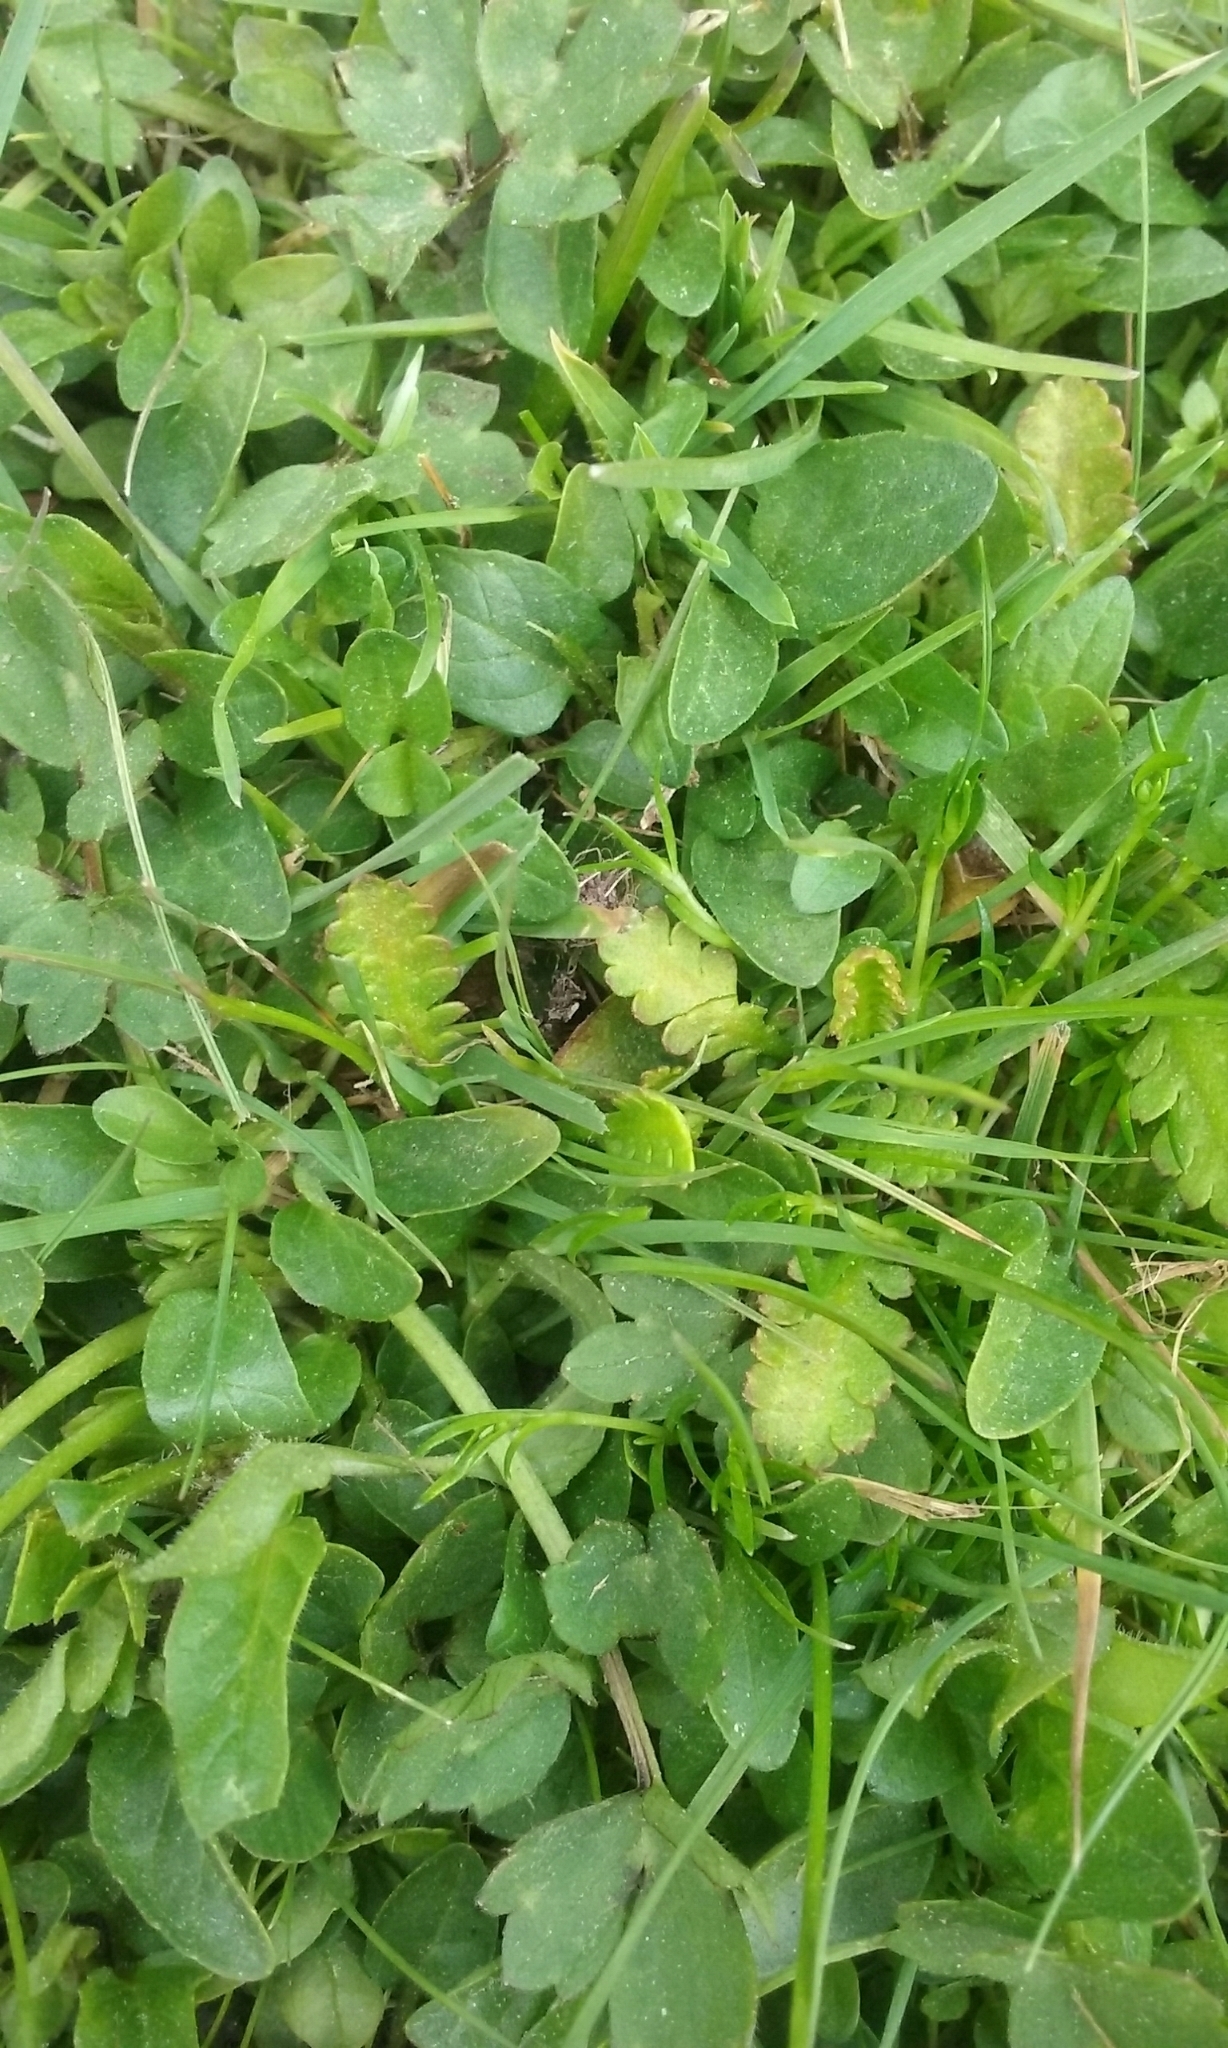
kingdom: Plantae
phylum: Tracheophyta
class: Magnoliopsida
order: Asterales
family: Asteraceae
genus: Leptinella
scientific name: Leptinella dioica
